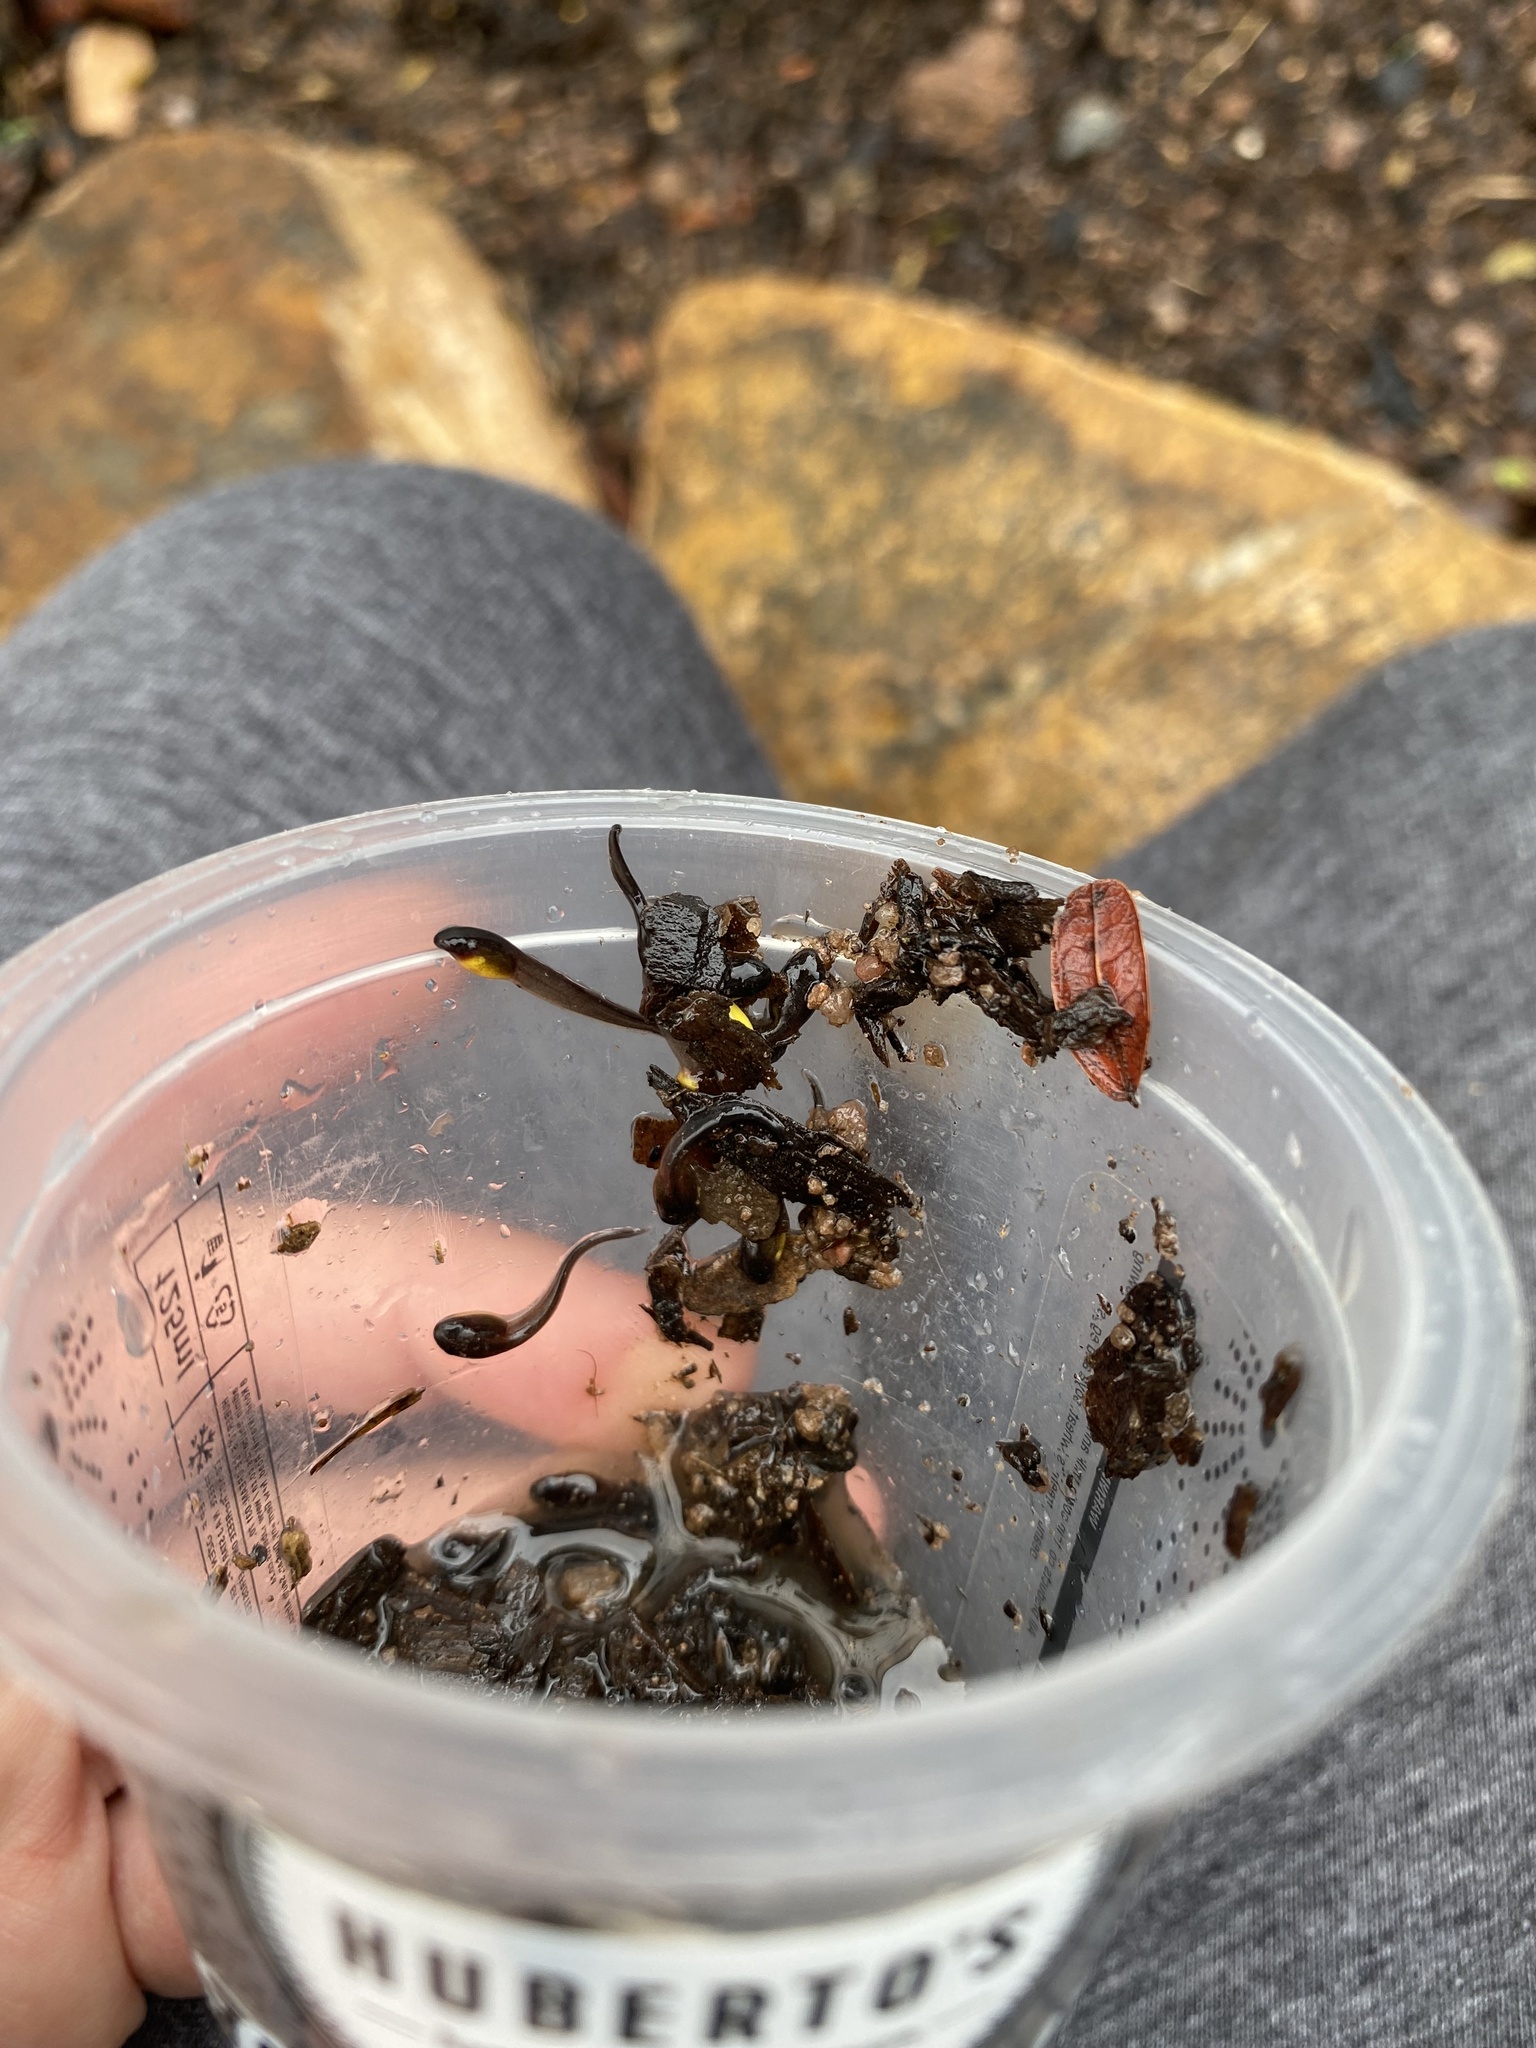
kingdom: Animalia
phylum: Chordata
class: Amphibia
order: Anura
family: Arthroleptidae
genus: Leptopelis
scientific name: Leptopelis natalensis
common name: Natal tree frog
